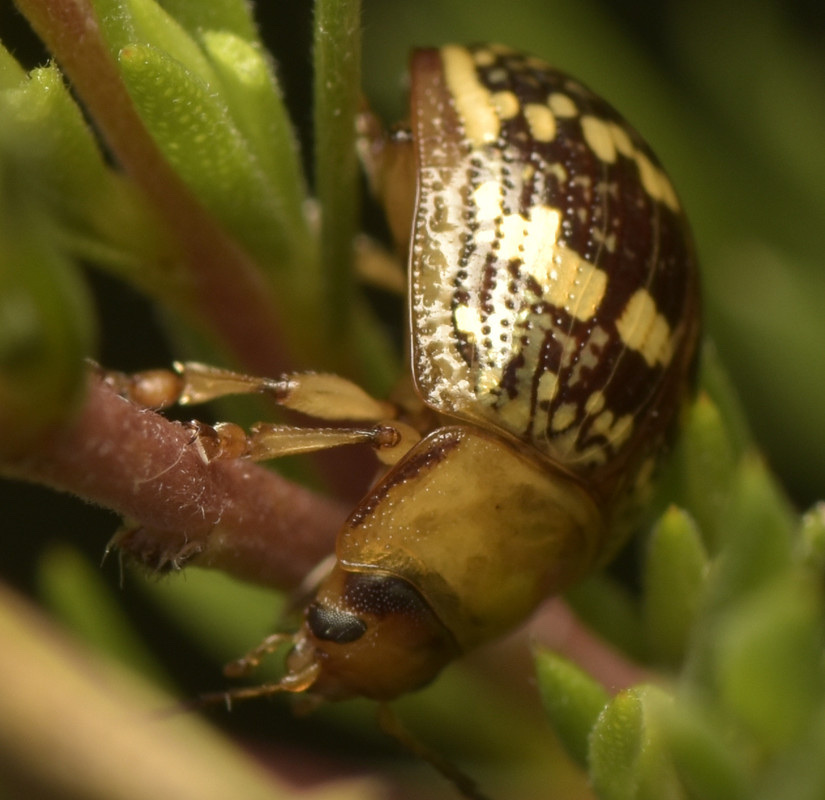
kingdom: Animalia
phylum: Arthropoda
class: Insecta
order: Coleoptera
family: Chrysomelidae
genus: Paropsis
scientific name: Paropsis
